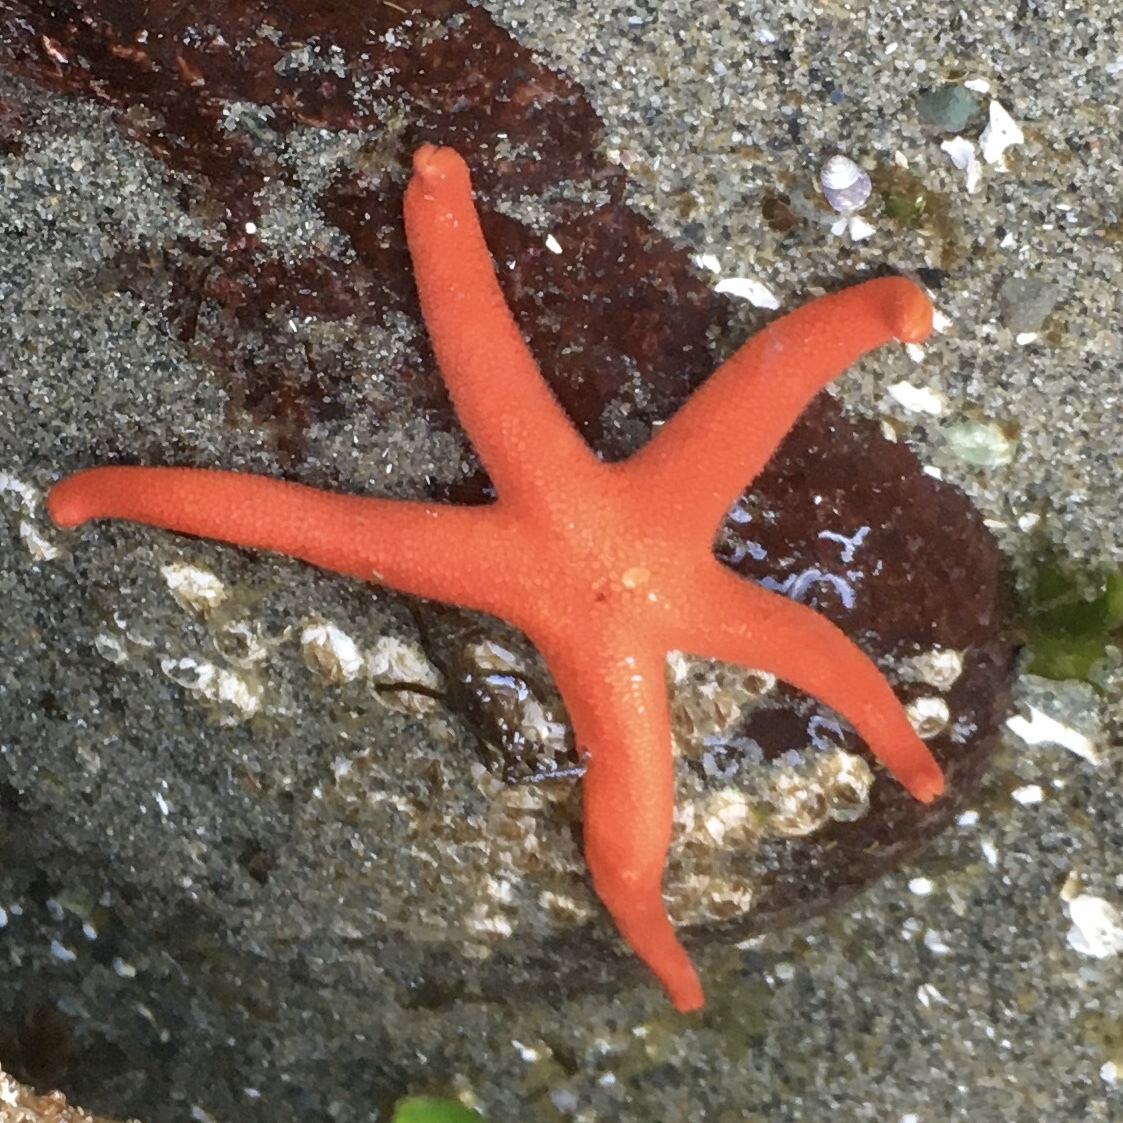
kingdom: Animalia
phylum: Echinodermata
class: Asteroidea
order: Spinulosida
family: Echinasteridae
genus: Henricia
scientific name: Henricia leviuscula
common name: Pacific blood star
